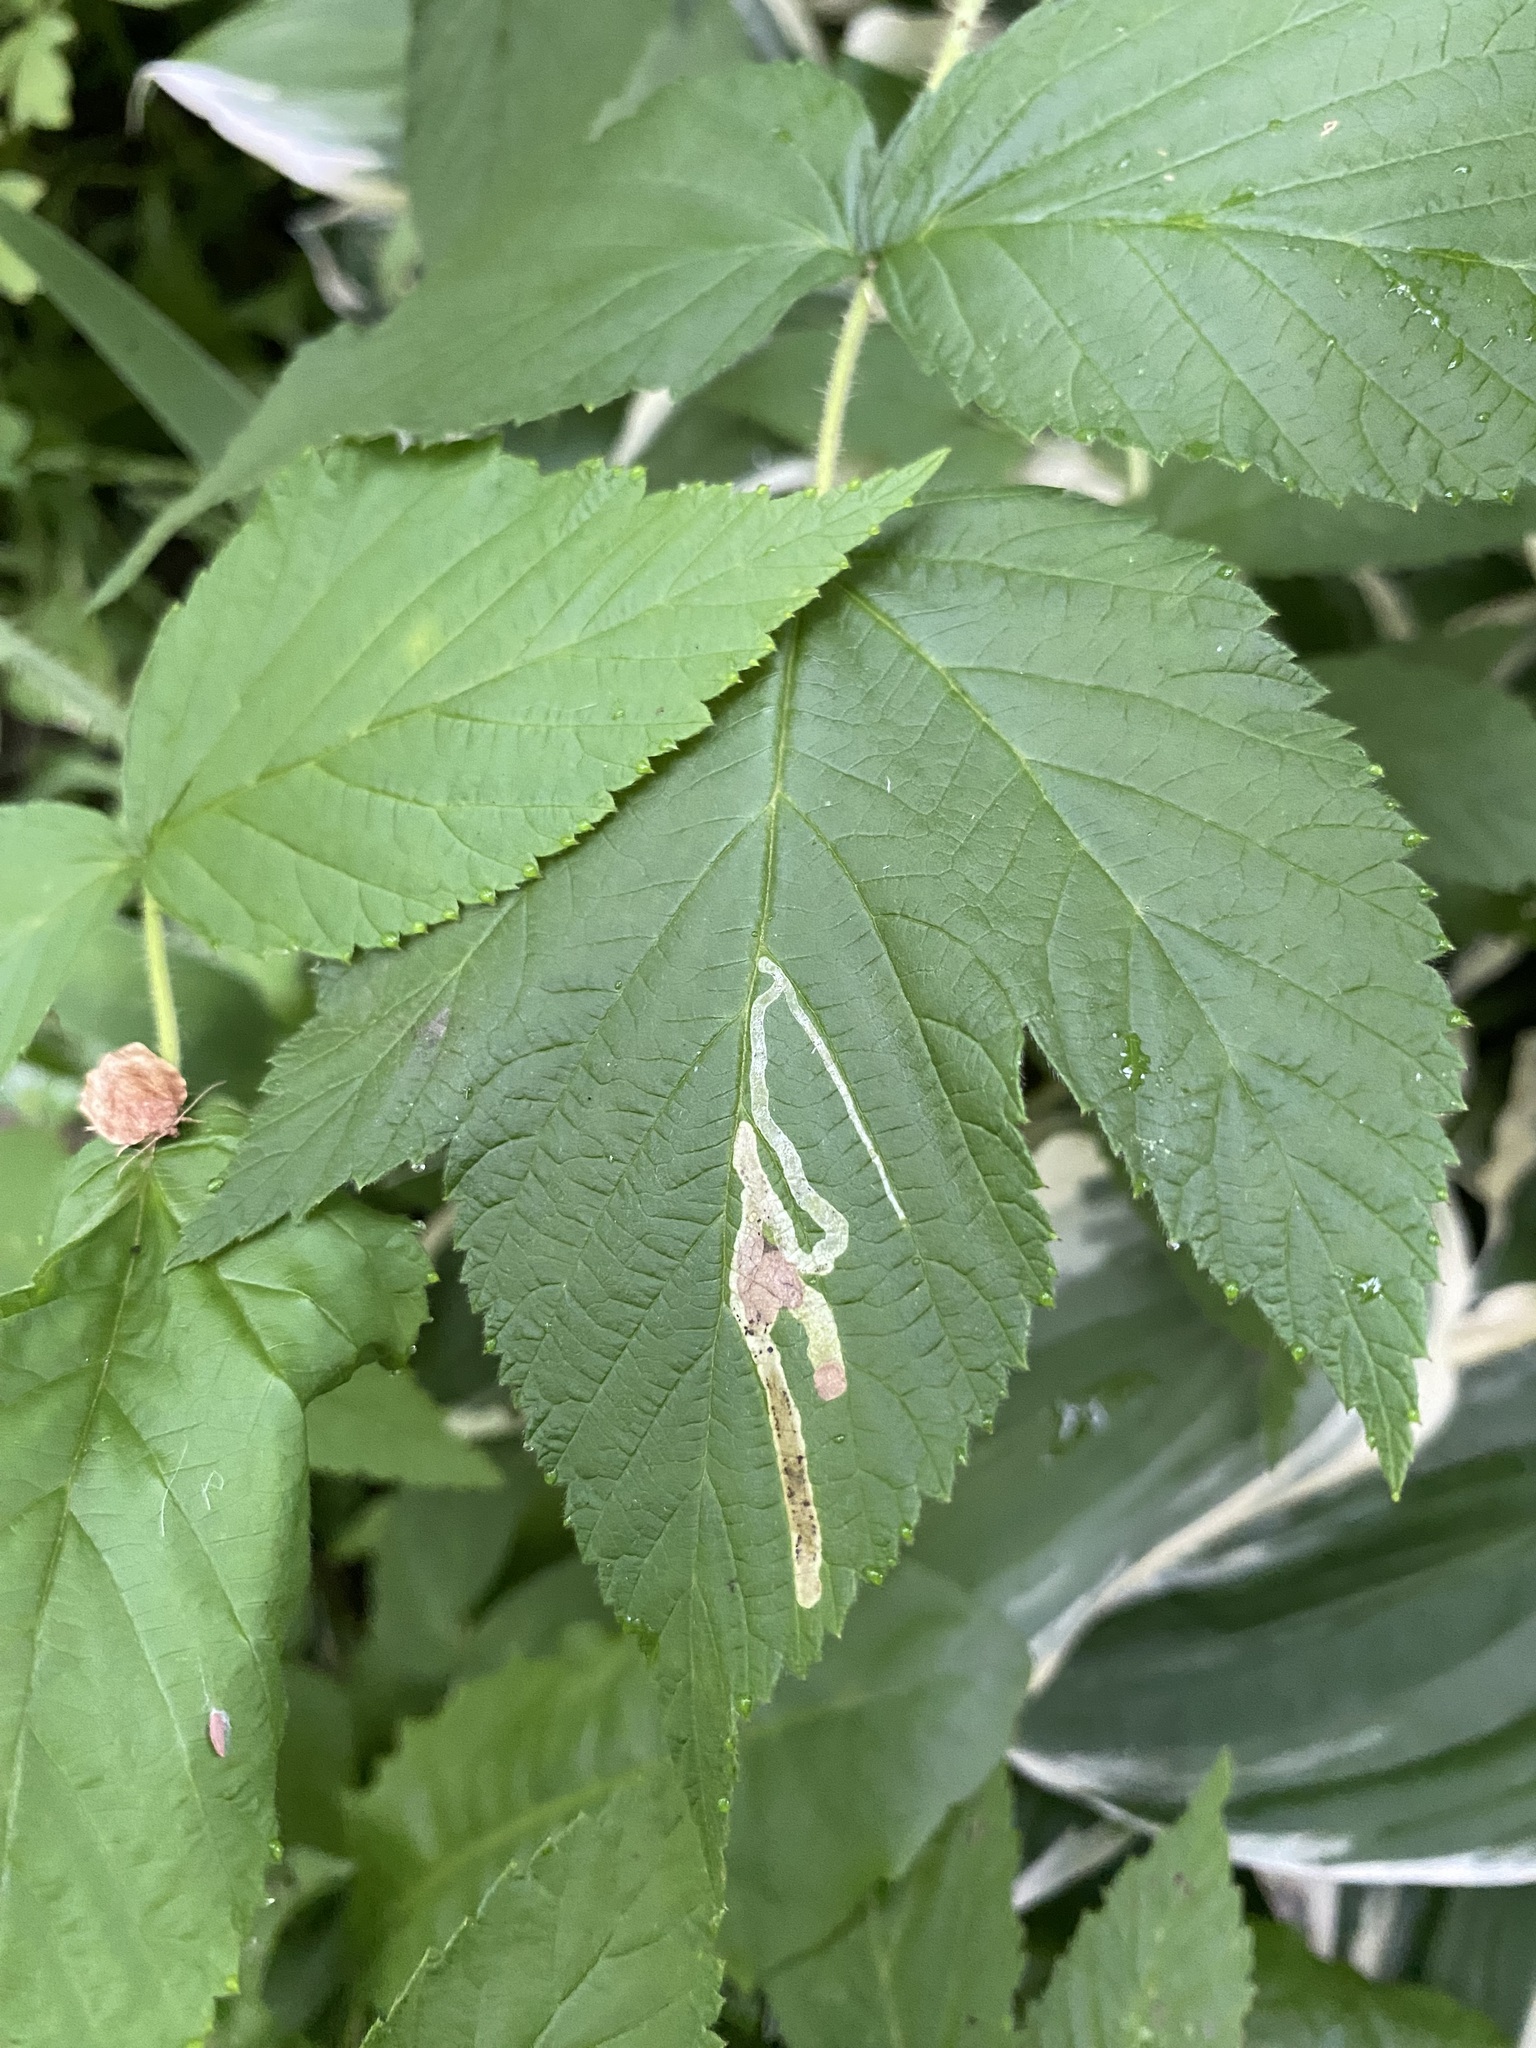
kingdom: Animalia
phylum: Arthropoda
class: Insecta
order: Diptera
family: Agromyzidae
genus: Agromyza
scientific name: Agromyza vockerothi
